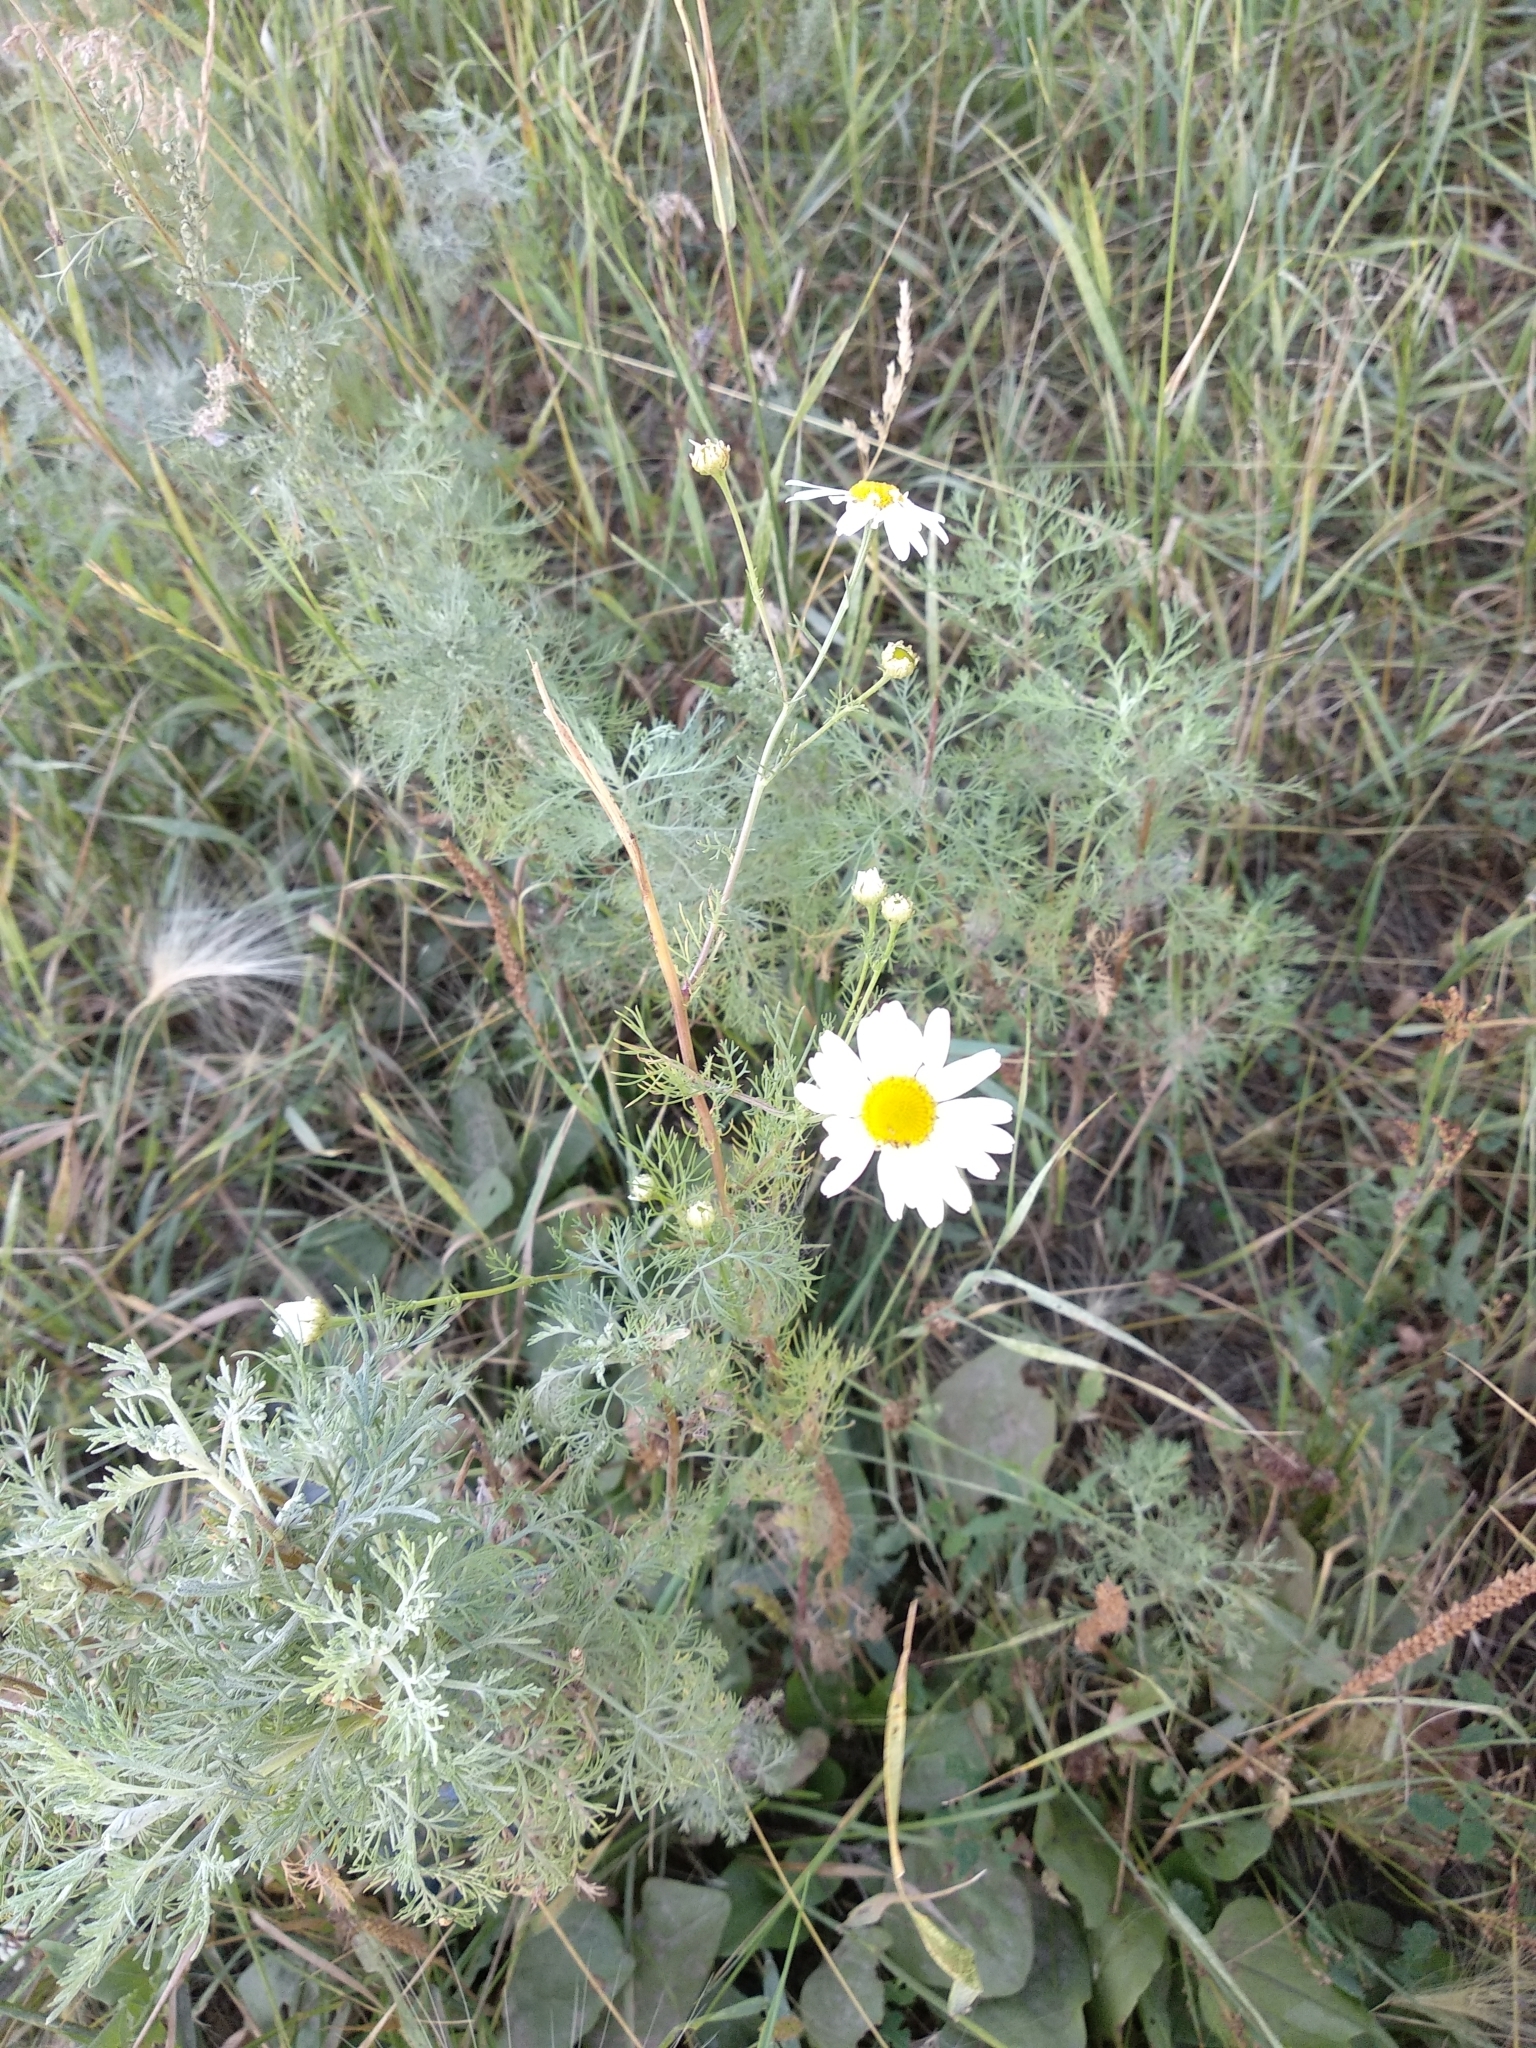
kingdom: Plantae
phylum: Tracheophyta
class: Magnoliopsida
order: Asterales
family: Asteraceae
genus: Tripleurospermum
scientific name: Tripleurospermum inodorum
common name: Scentless mayweed
